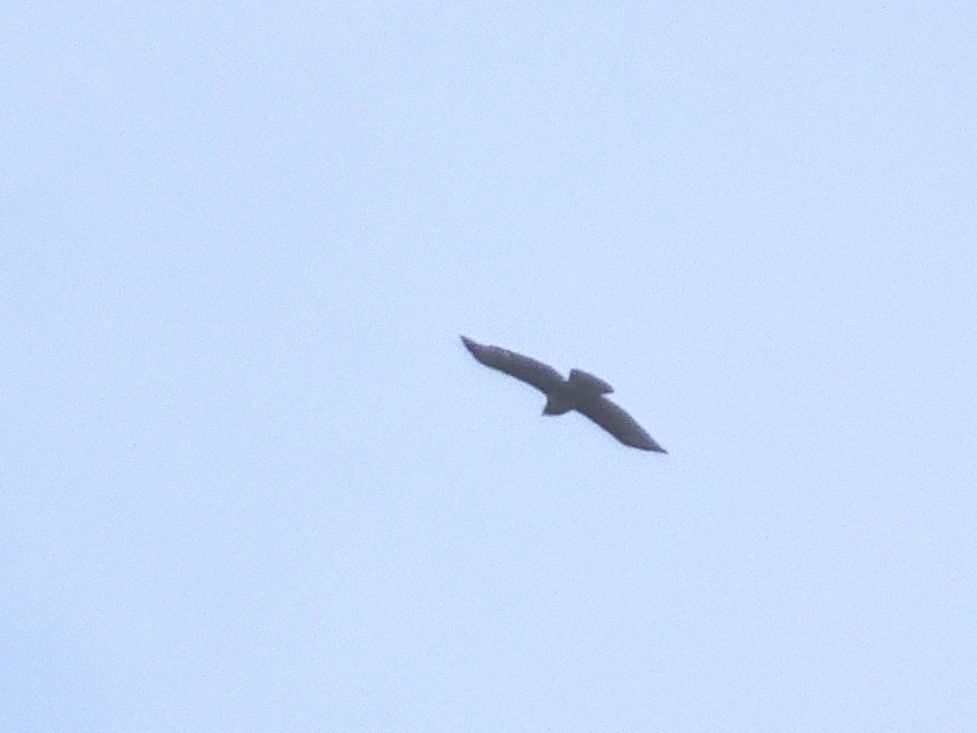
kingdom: Animalia
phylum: Chordata
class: Aves
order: Accipitriformes
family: Accipitridae
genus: Buteo
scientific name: Buteo buteo
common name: Common buzzard
